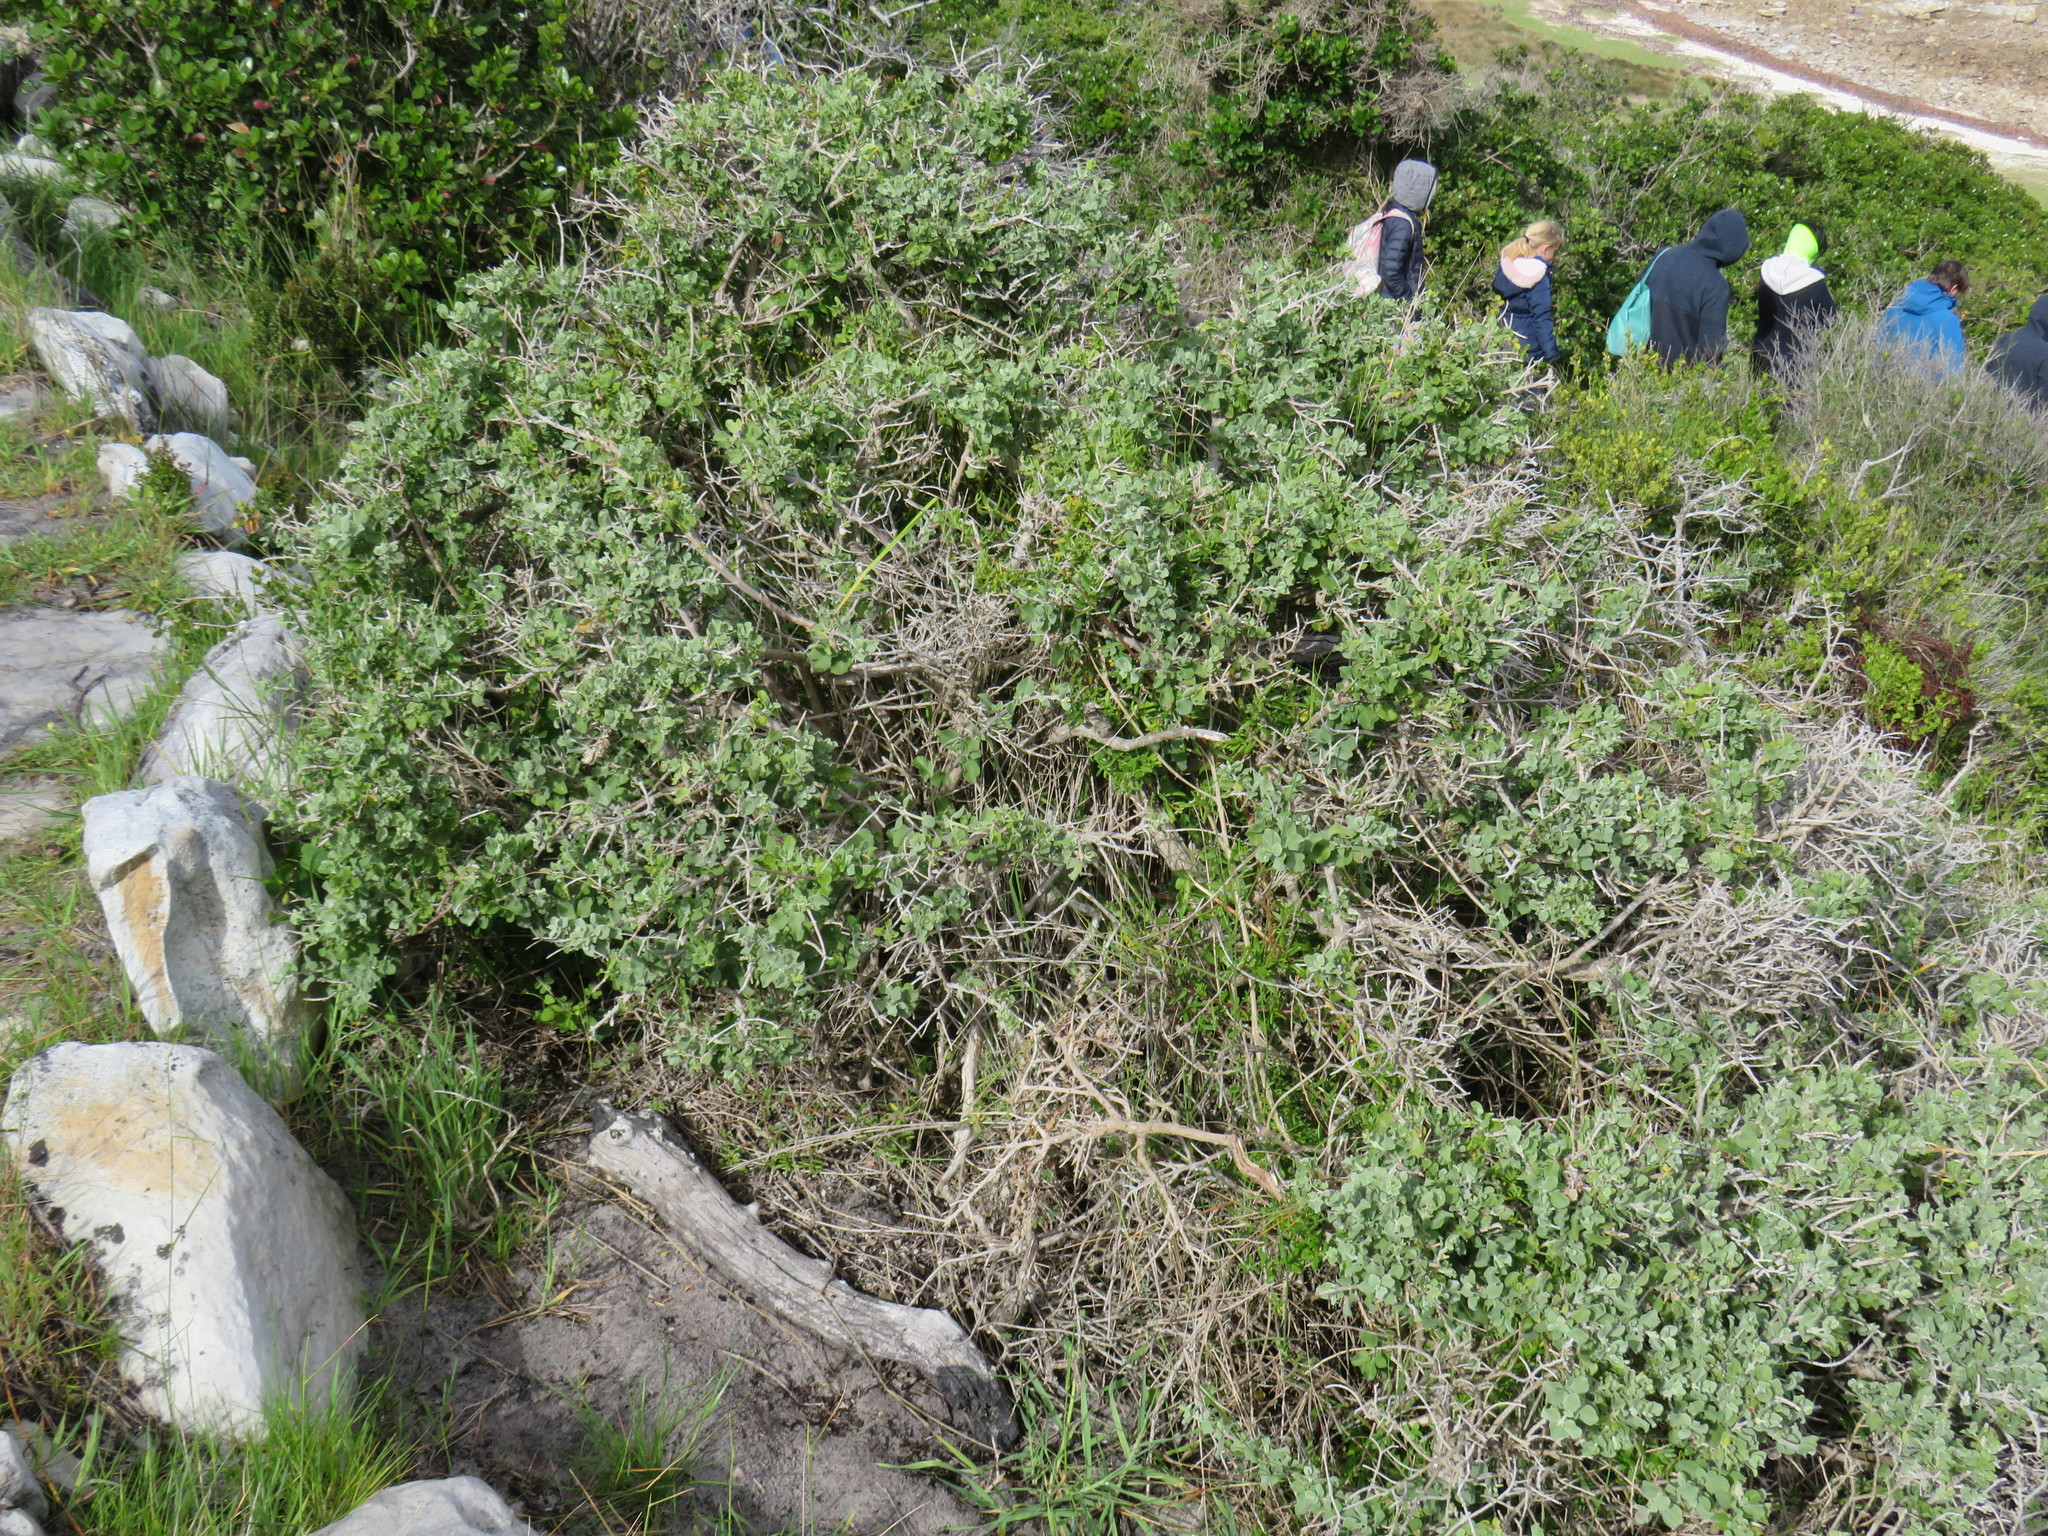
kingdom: Plantae
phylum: Tracheophyta
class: Magnoliopsida
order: Lamiales
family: Lamiaceae
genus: Salvia
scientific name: Salvia aurea
